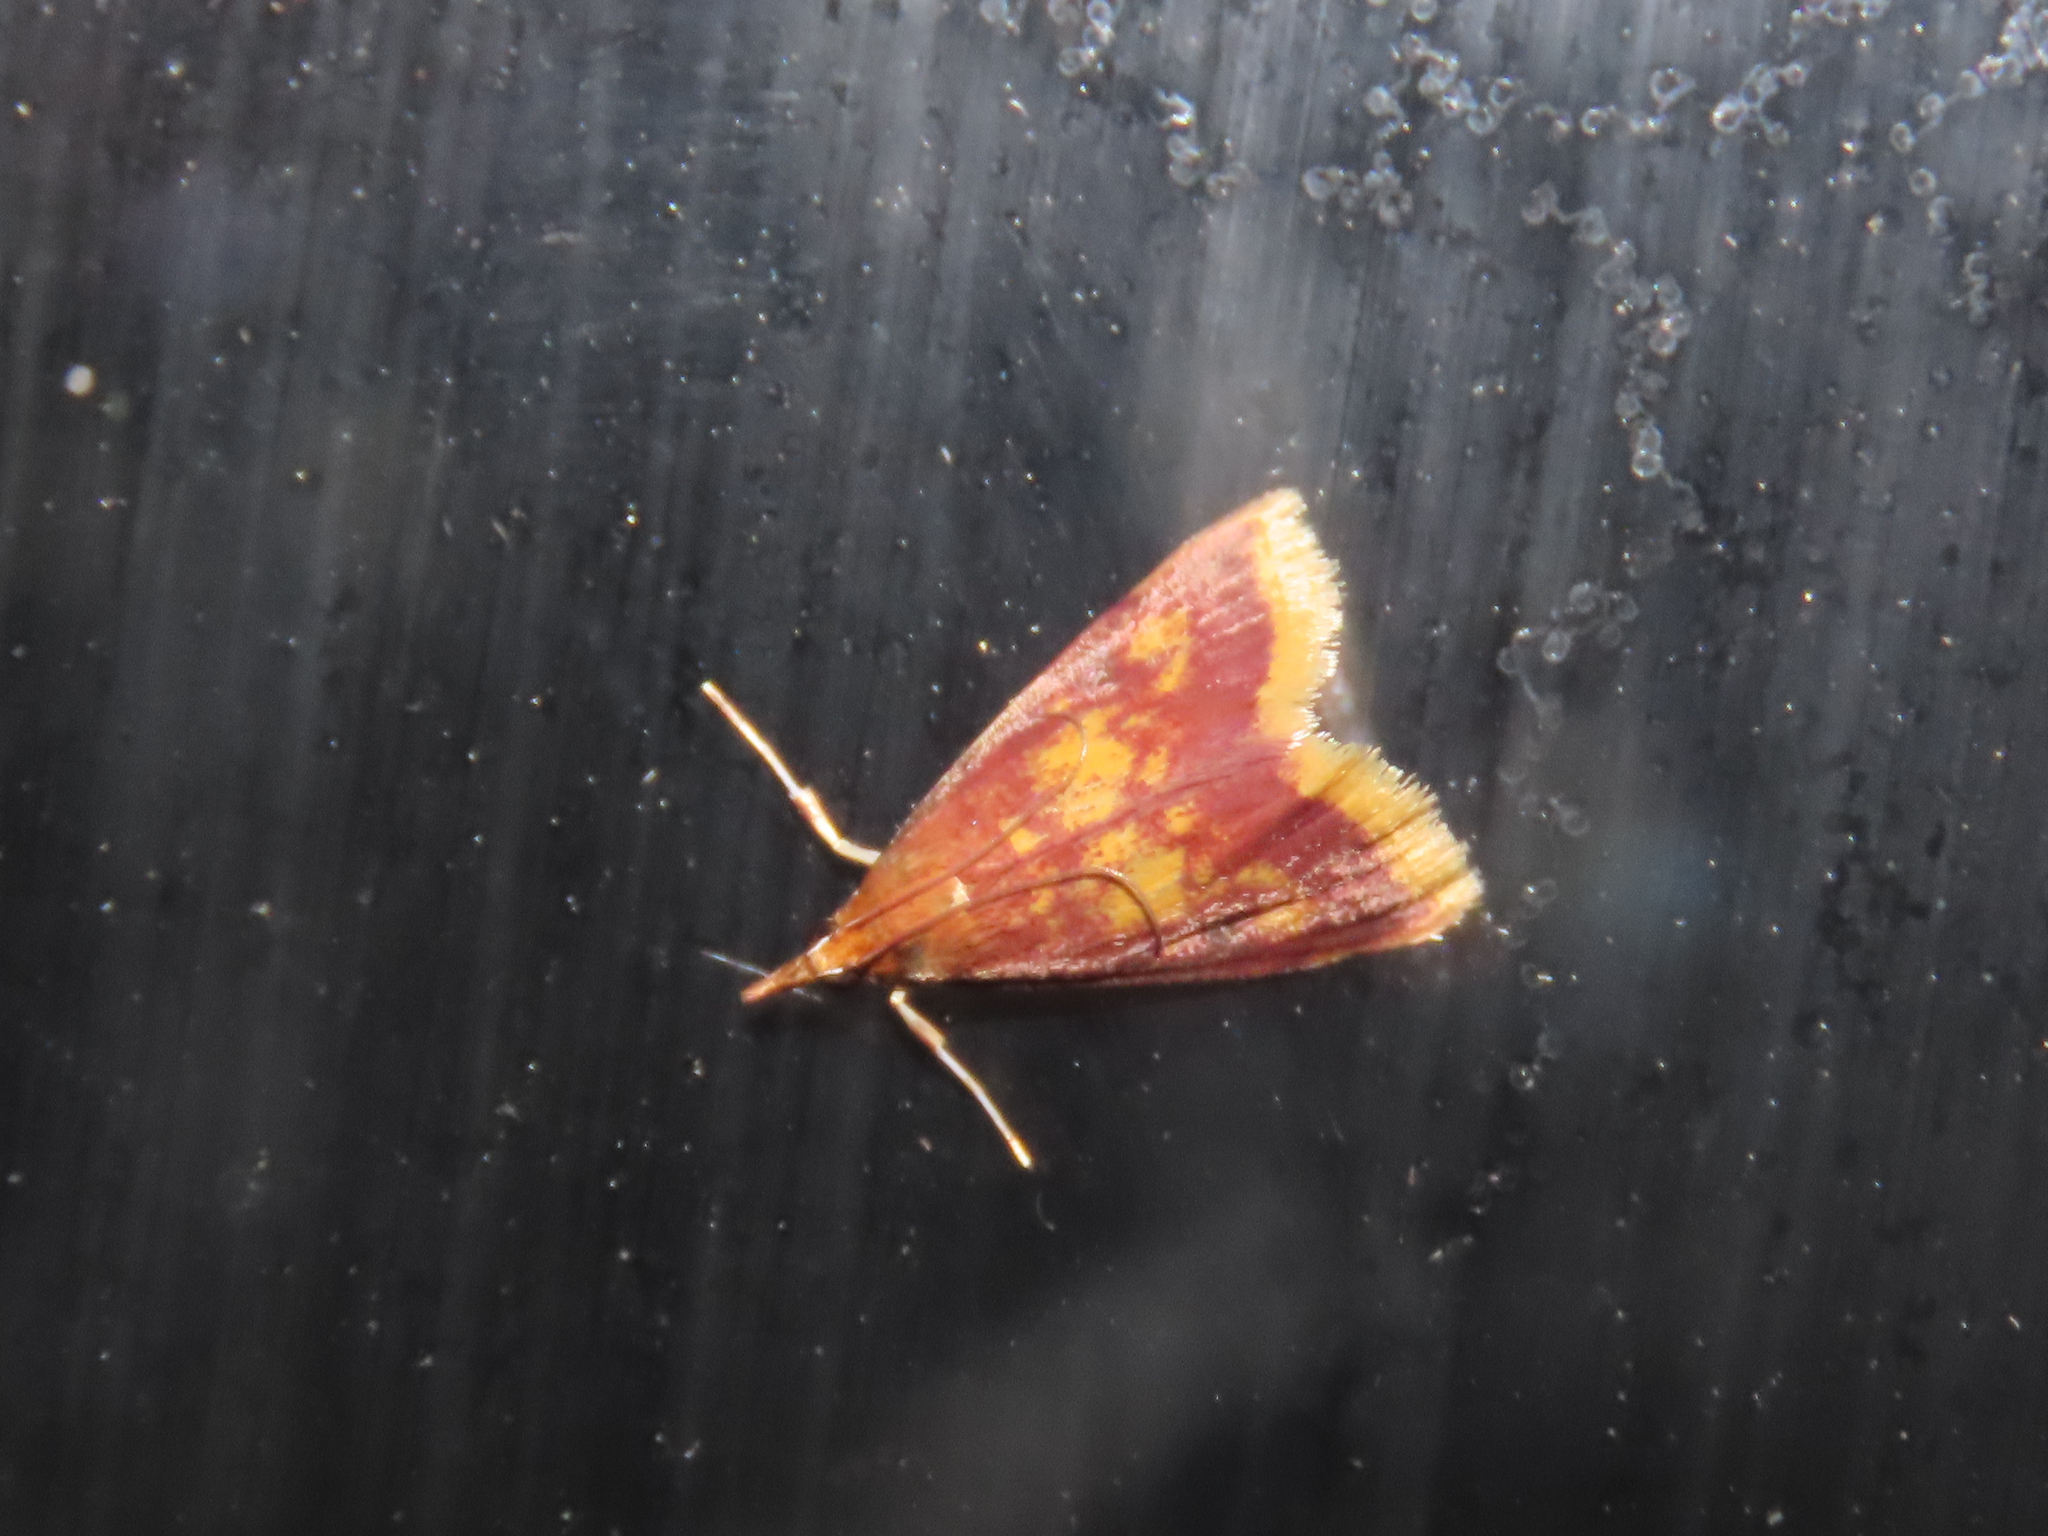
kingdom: Animalia
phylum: Arthropoda
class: Insecta
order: Lepidoptera
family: Crambidae
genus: Pyrausta
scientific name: Pyrausta acrionalis
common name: Mint-loving pyrausta moth
